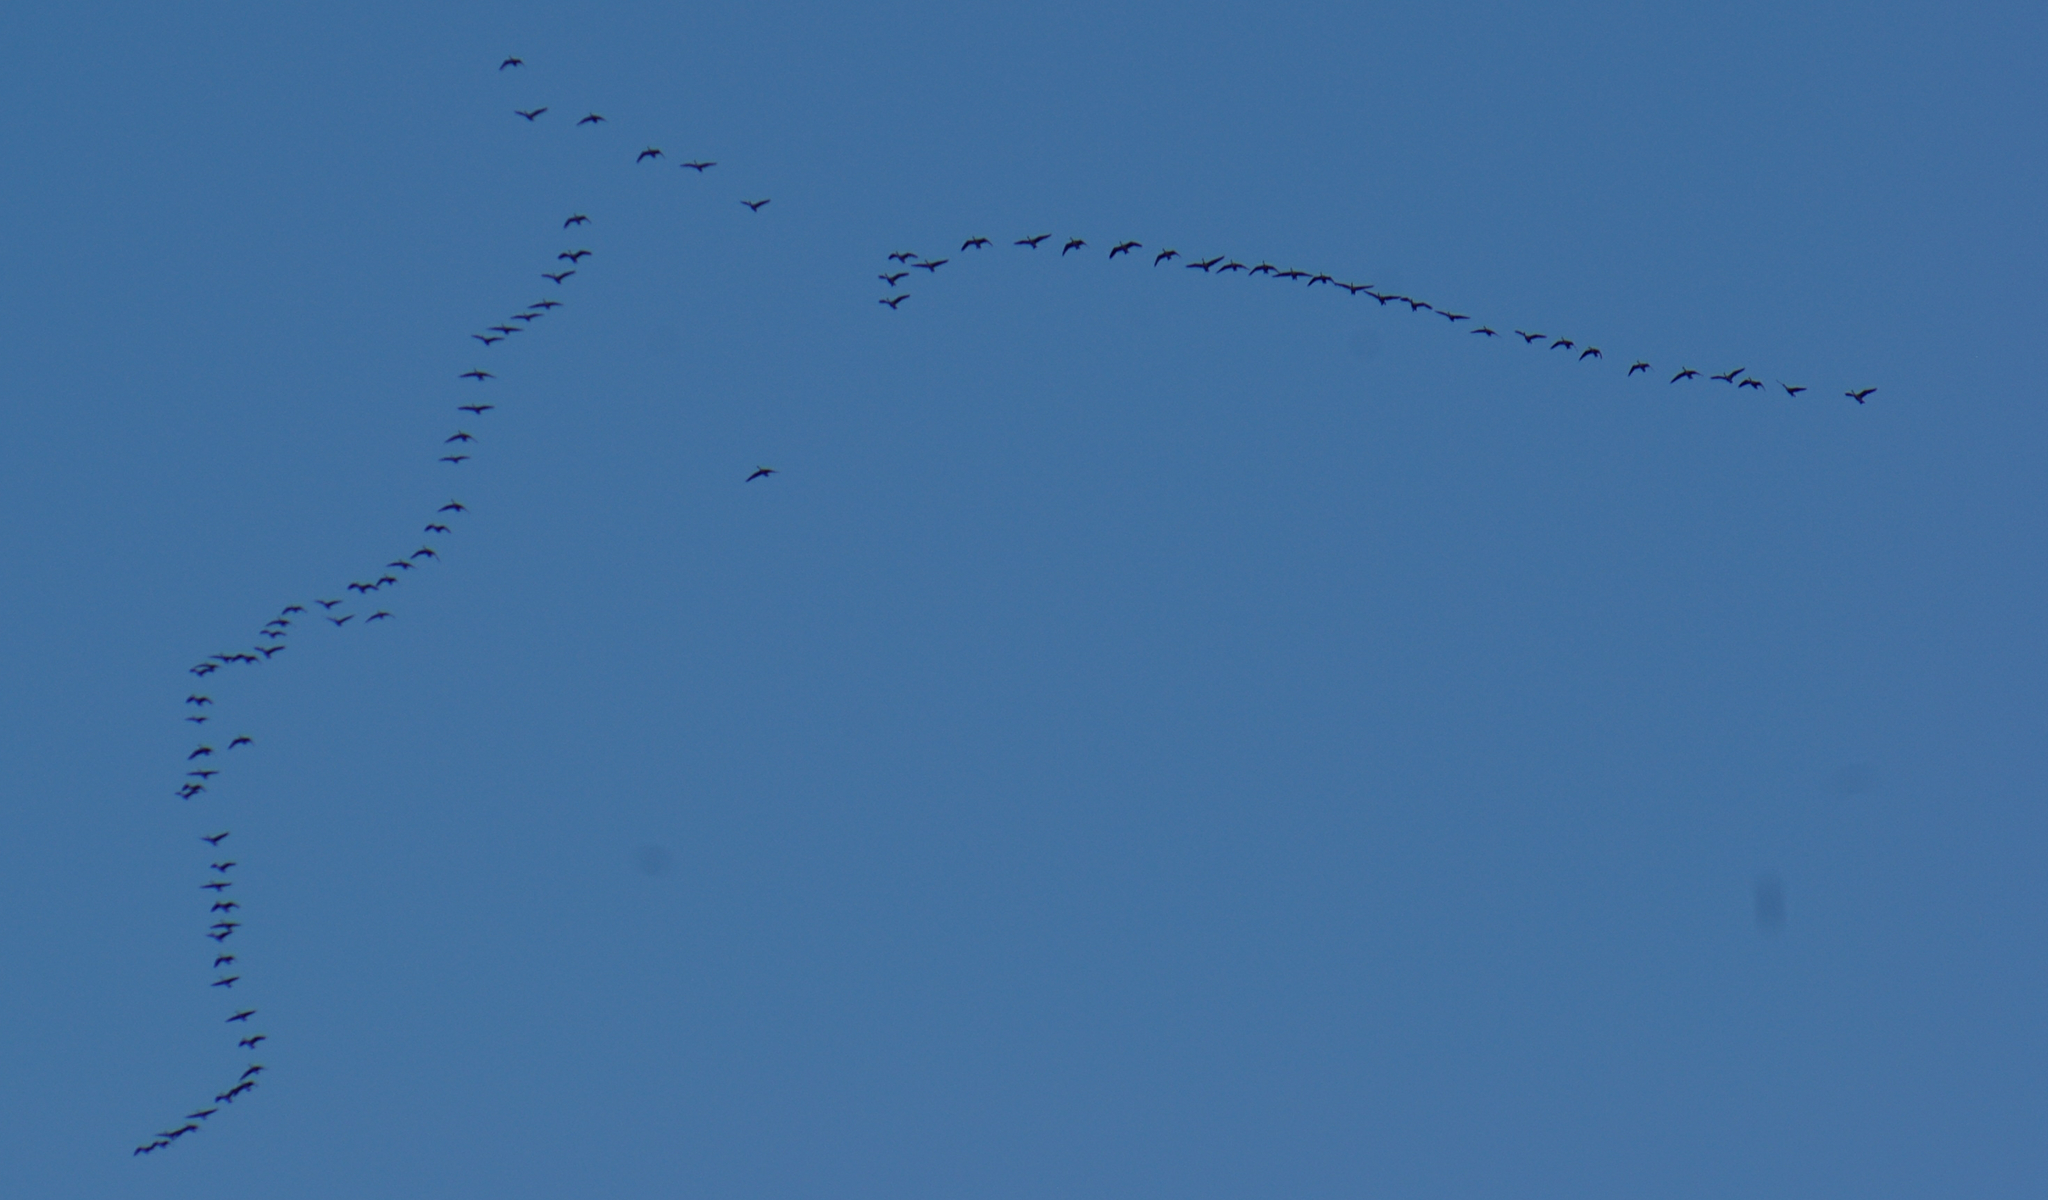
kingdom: Animalia
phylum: Chordata
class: Aves
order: Anseriformes
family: Anatidae
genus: Branta
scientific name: Branta canadensis
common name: Canada goose
